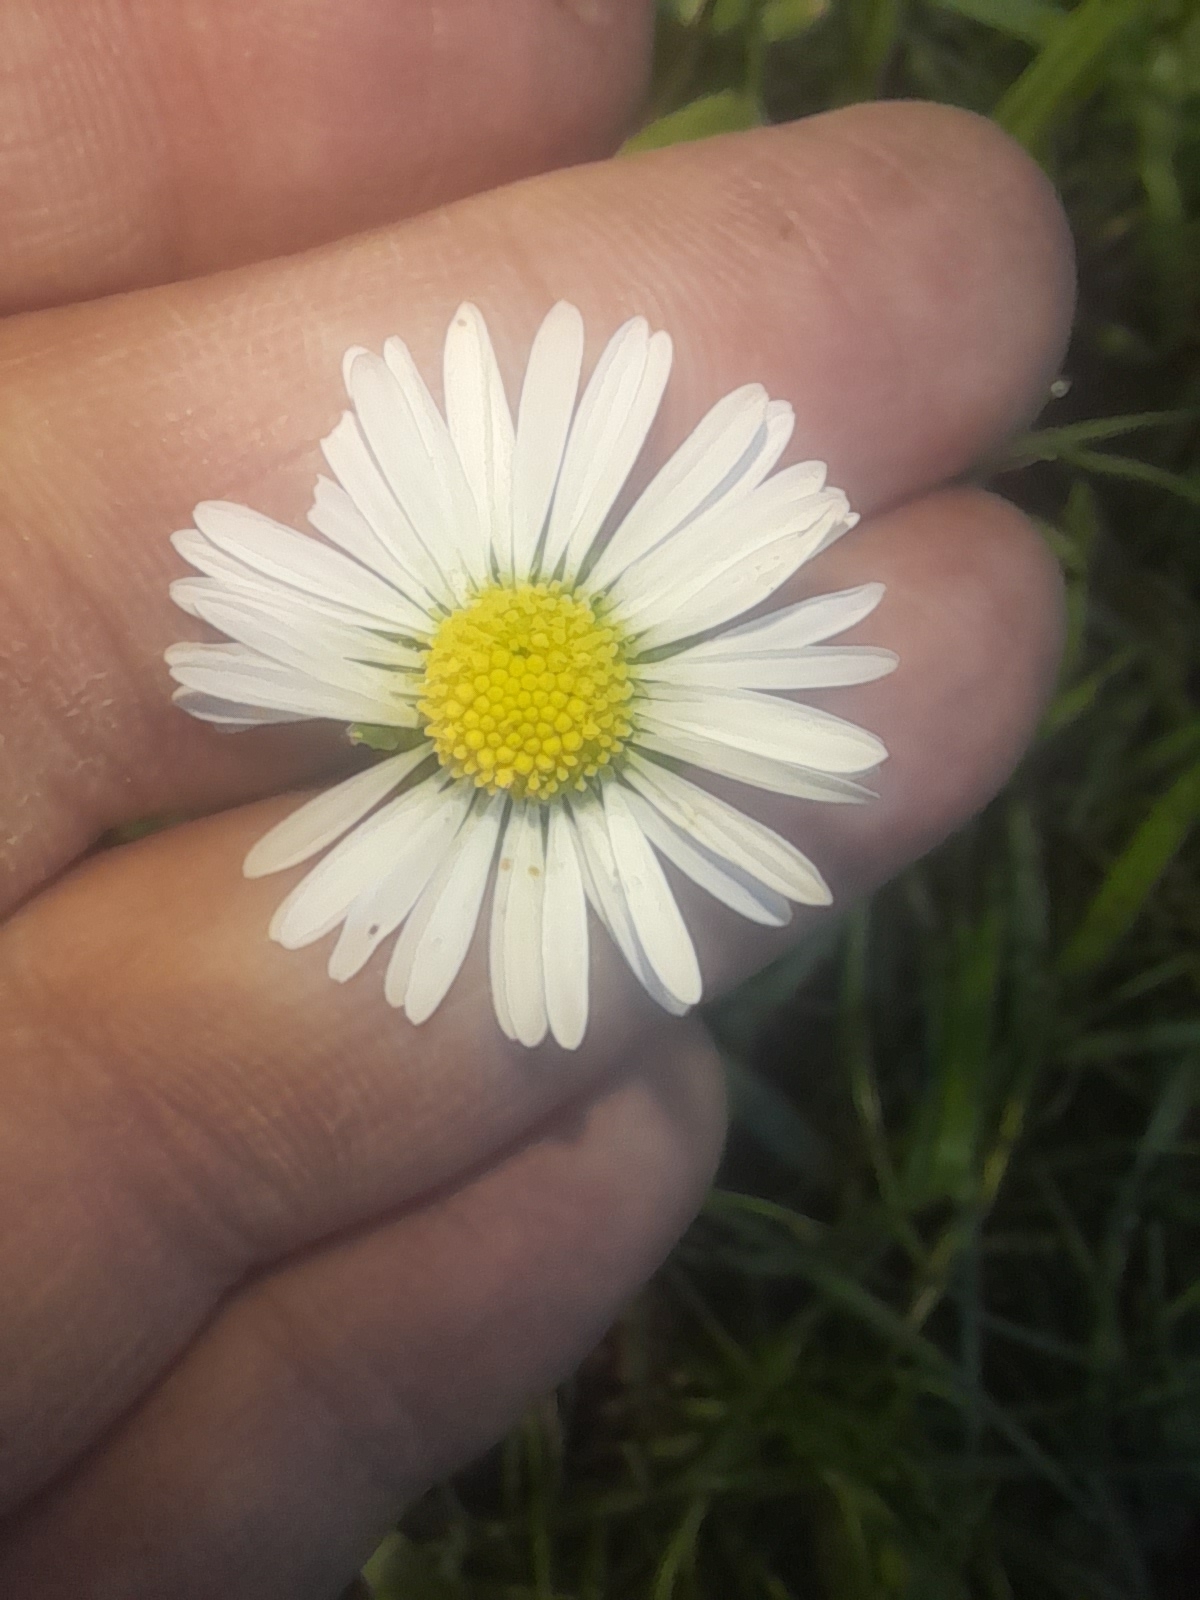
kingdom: Plantae
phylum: Tracheophyta
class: Magnoliopsida
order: Asterales
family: Asteraceae
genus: Bellis
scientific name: Bellis sylvestris
